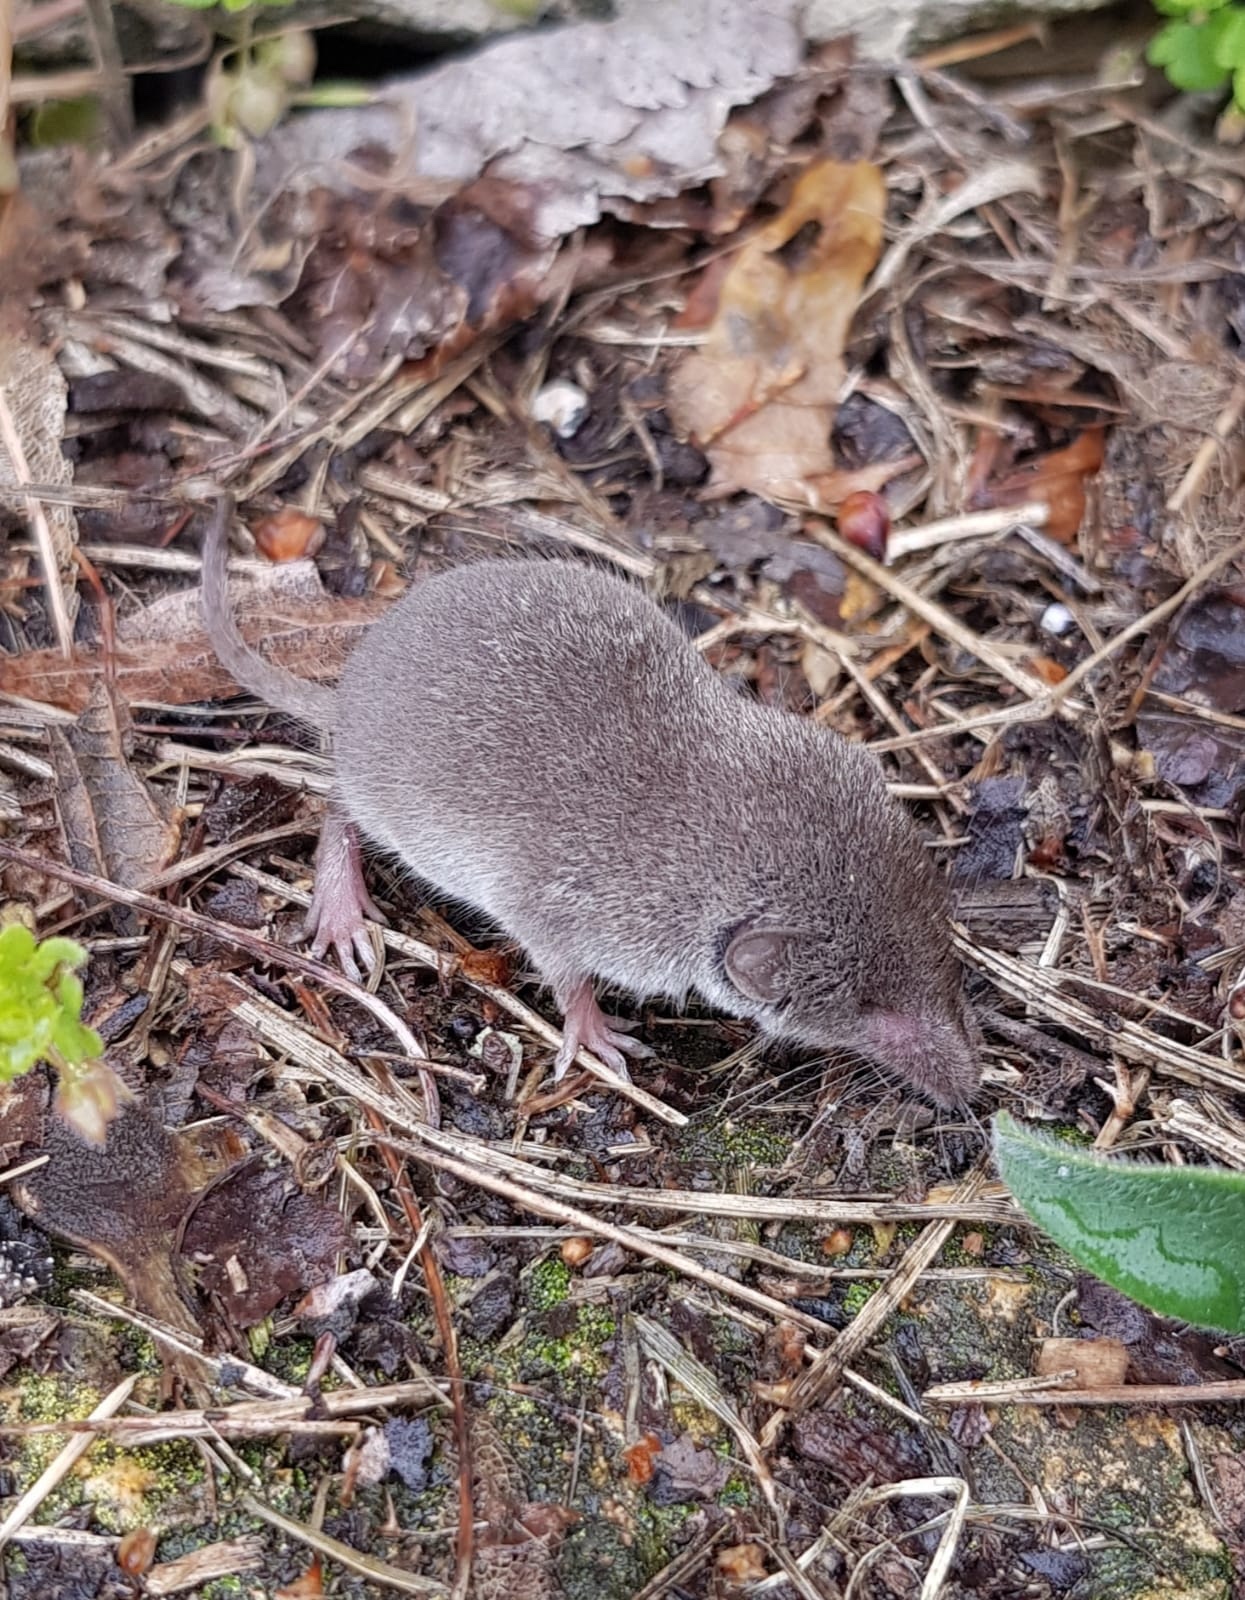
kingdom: Animalia
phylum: Chordata
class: Mammalia
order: Soricomorpha
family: Soricidae
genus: Crocidura
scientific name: Crocidura suaveolens
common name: Lesser white-toothed shrew
